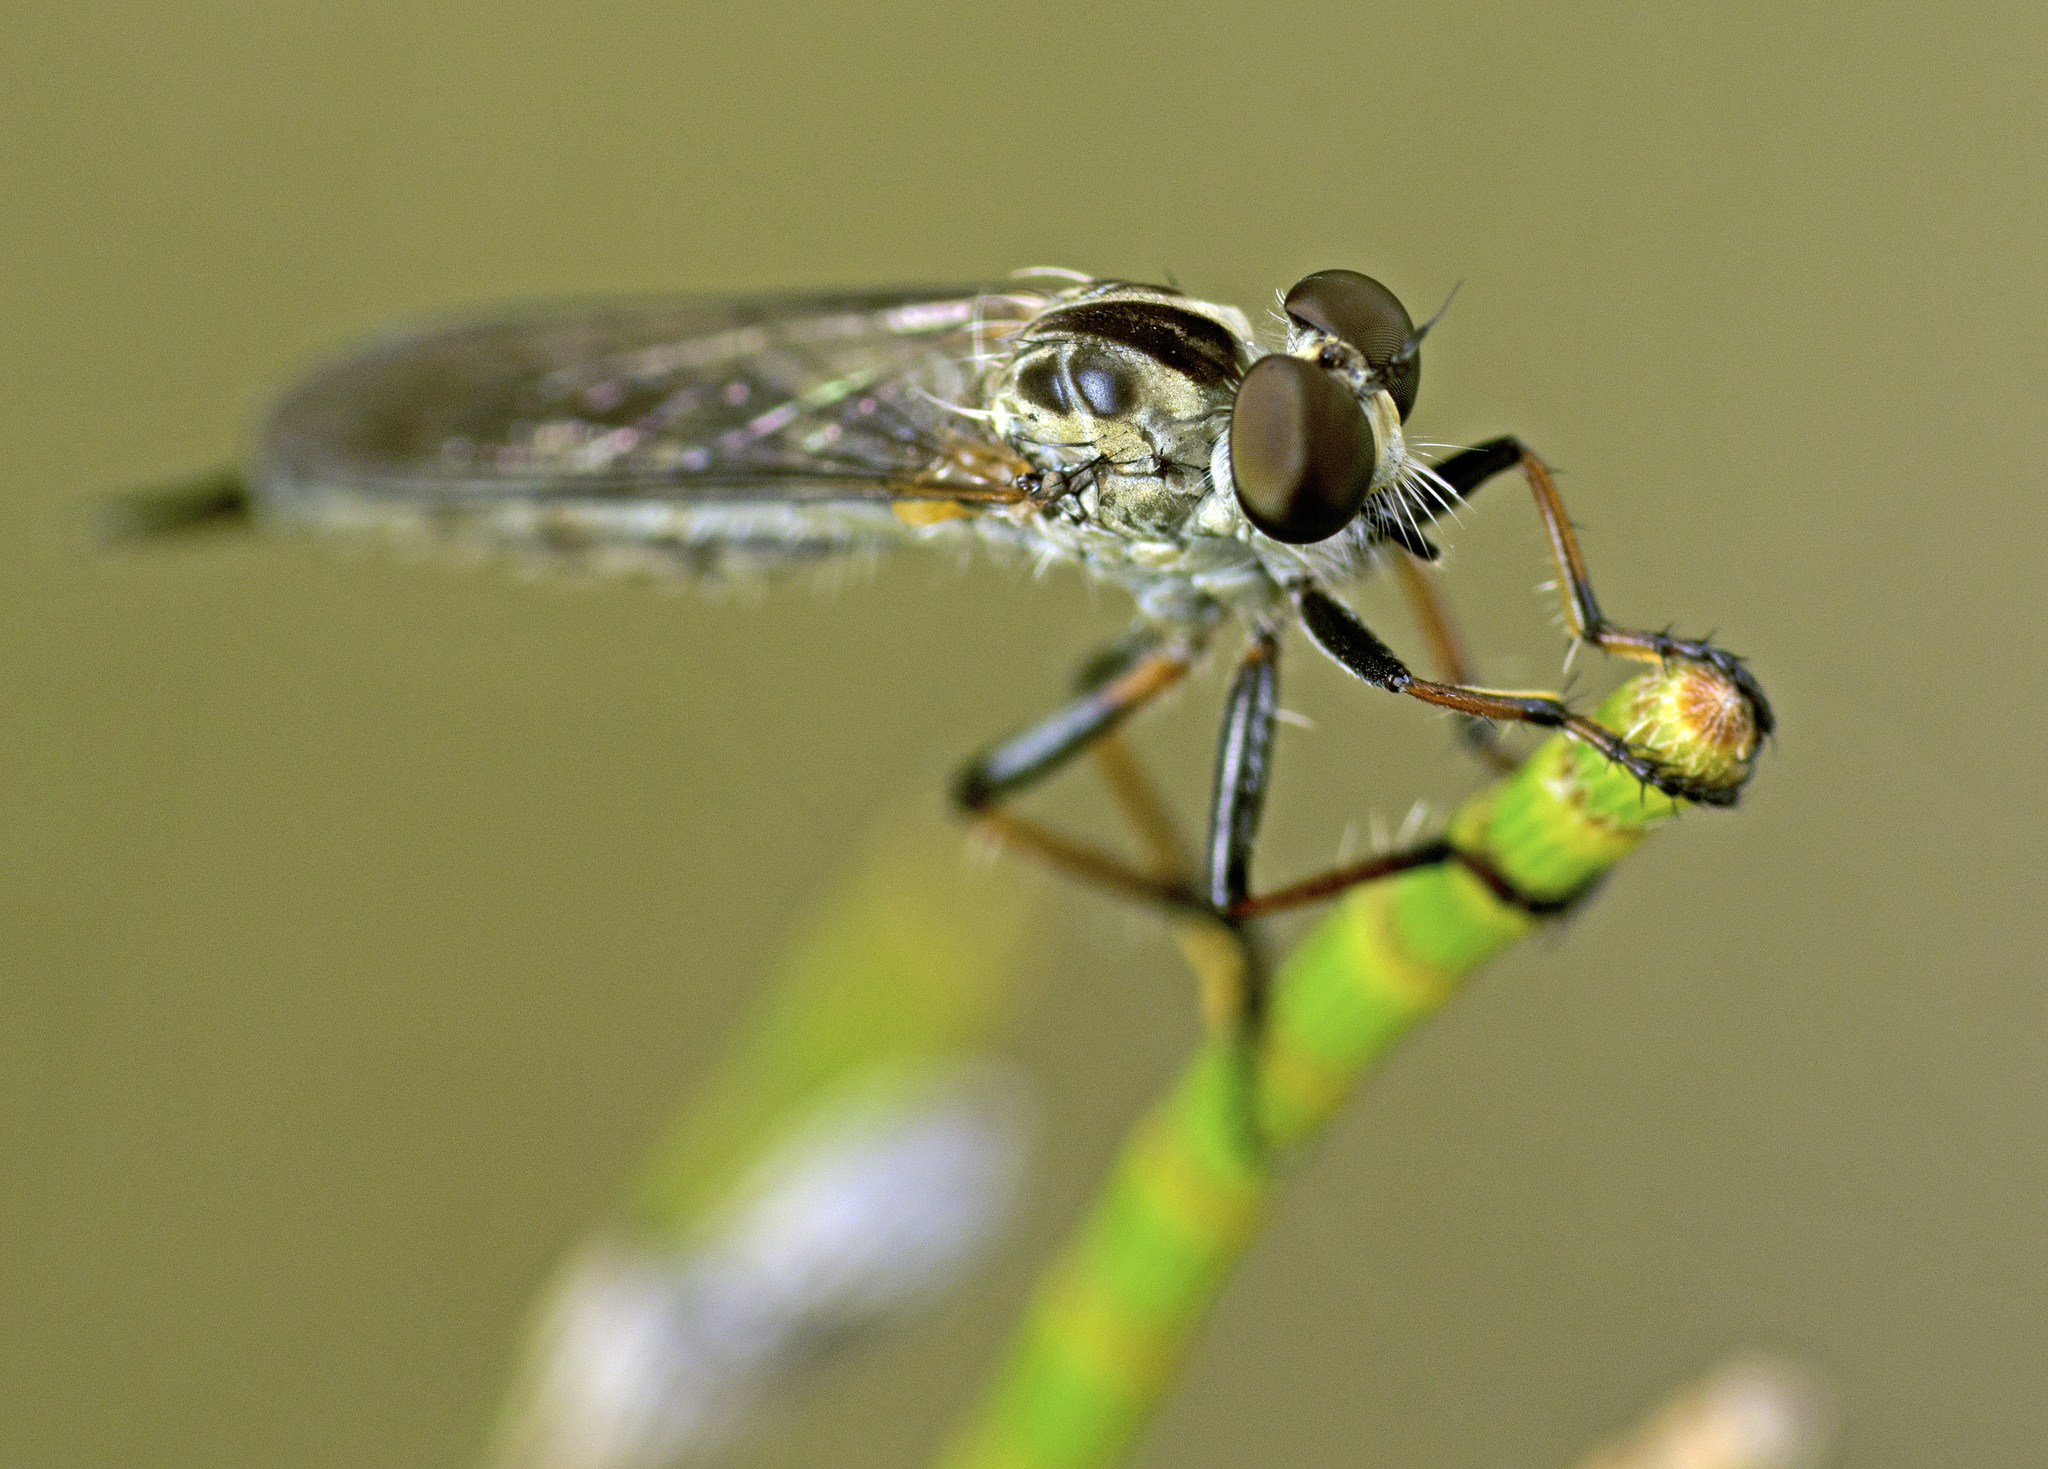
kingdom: Animalia
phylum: Arthropoda
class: Insecta
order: Diptera
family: Asilidae
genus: Cerdistus
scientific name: Cerdistus varifemoratus
